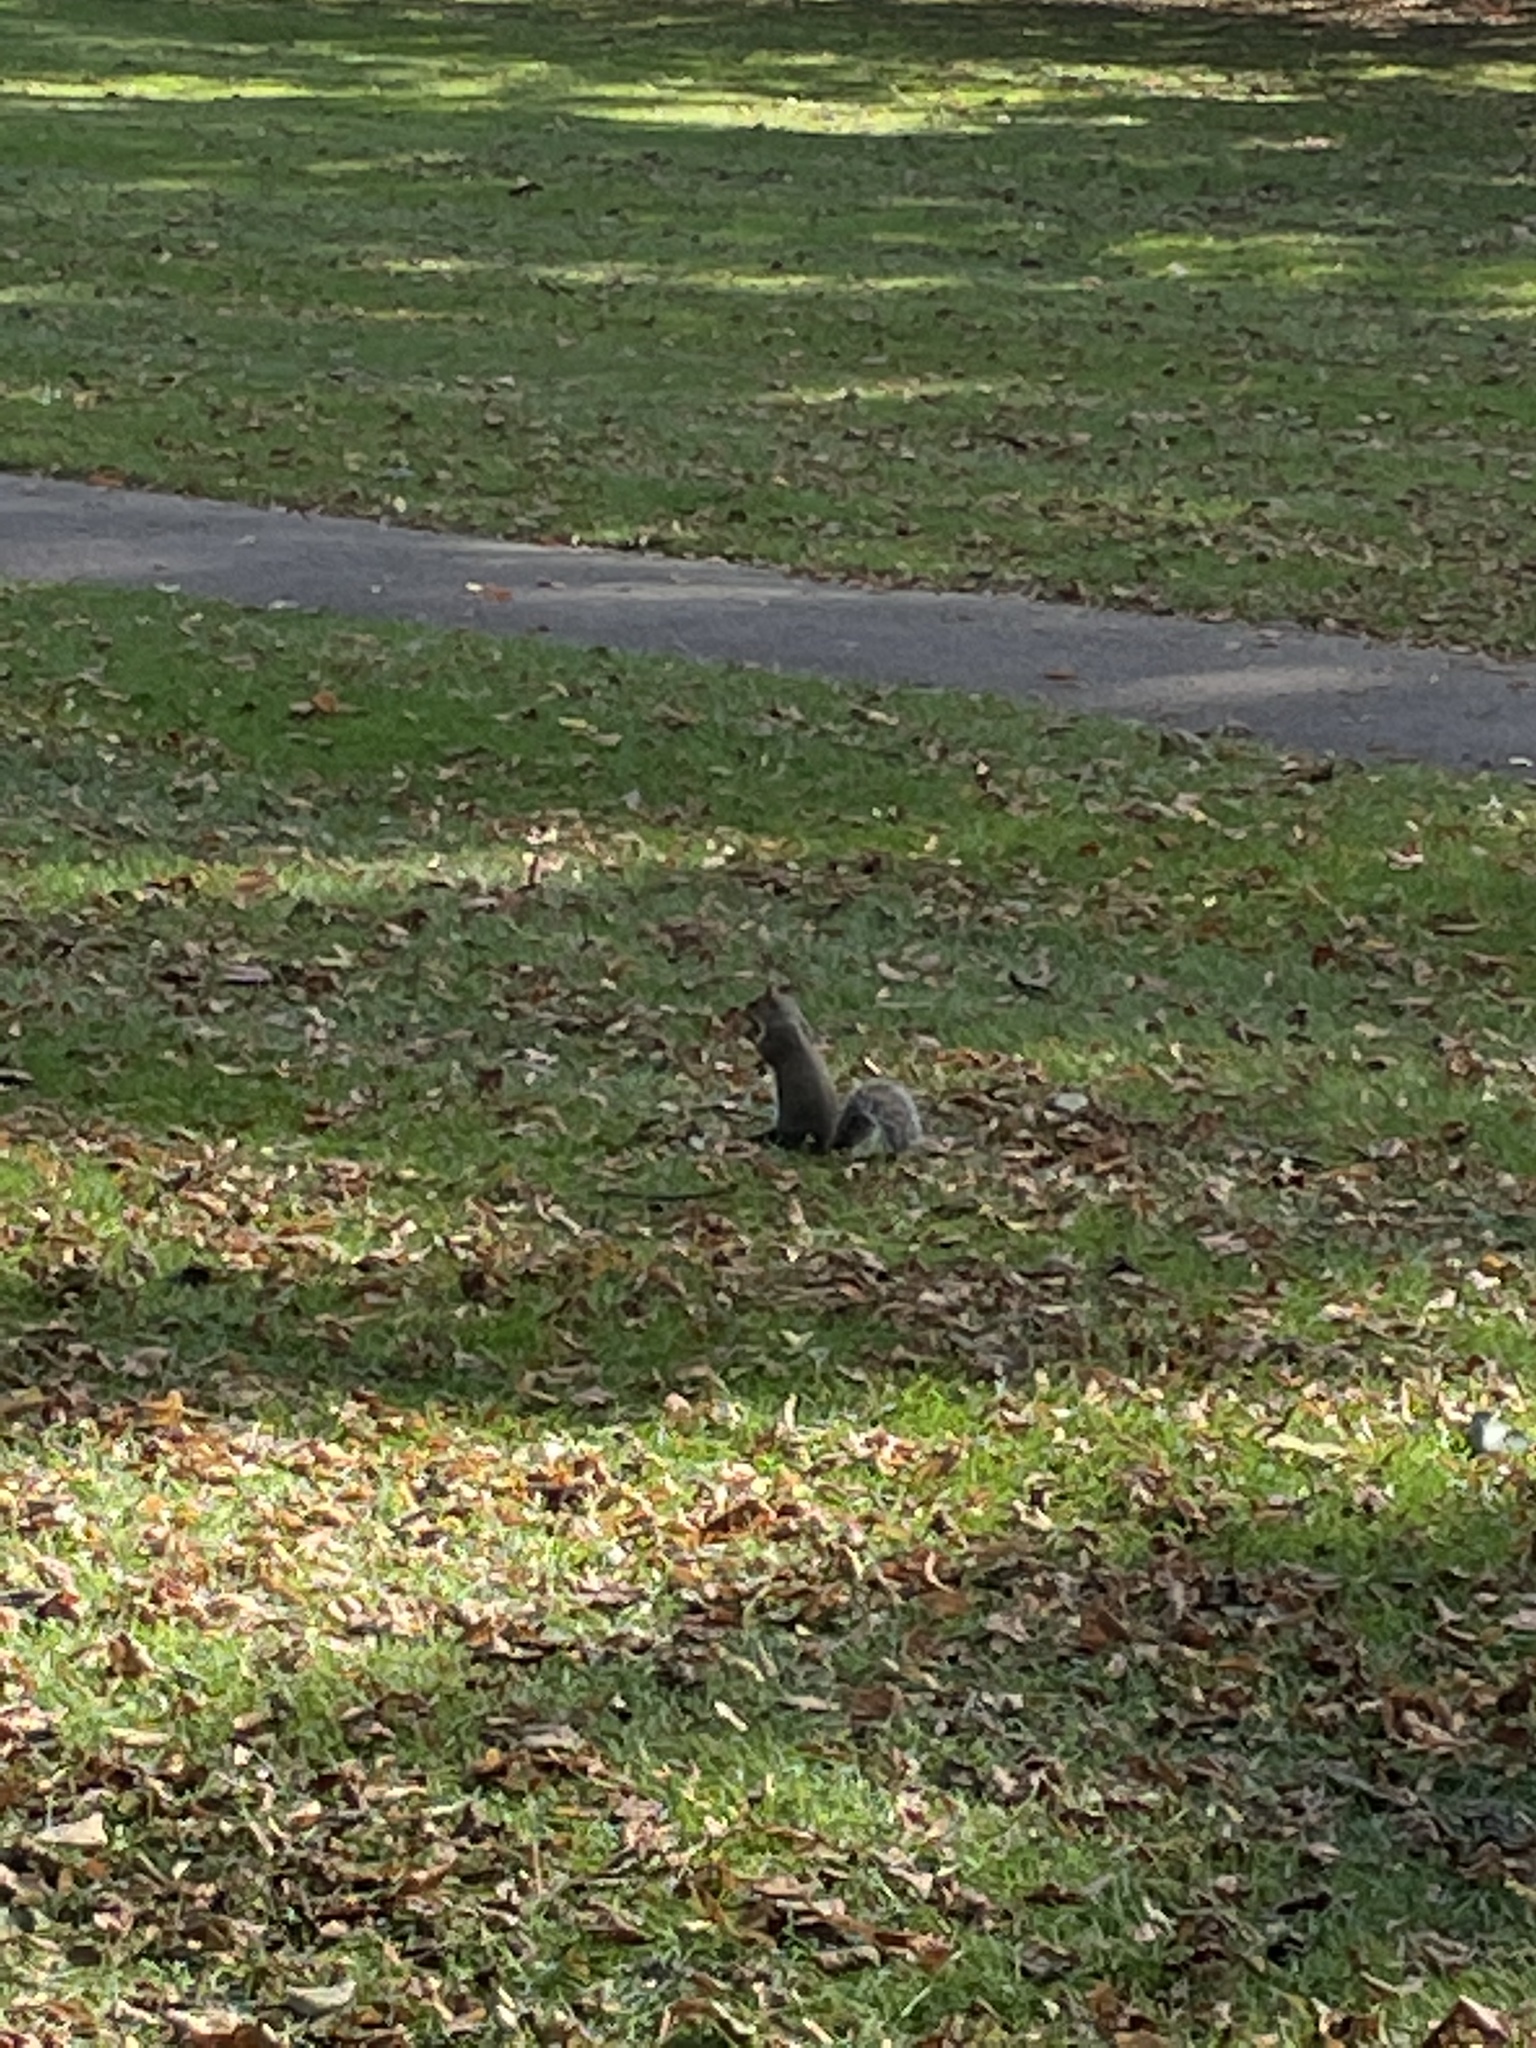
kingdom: Animalia
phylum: Chordata
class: Mammalia
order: Rodentia
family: Sciuridae
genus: Sciurus
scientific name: Sciurus carolinensis
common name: Eastern gray squirrel
